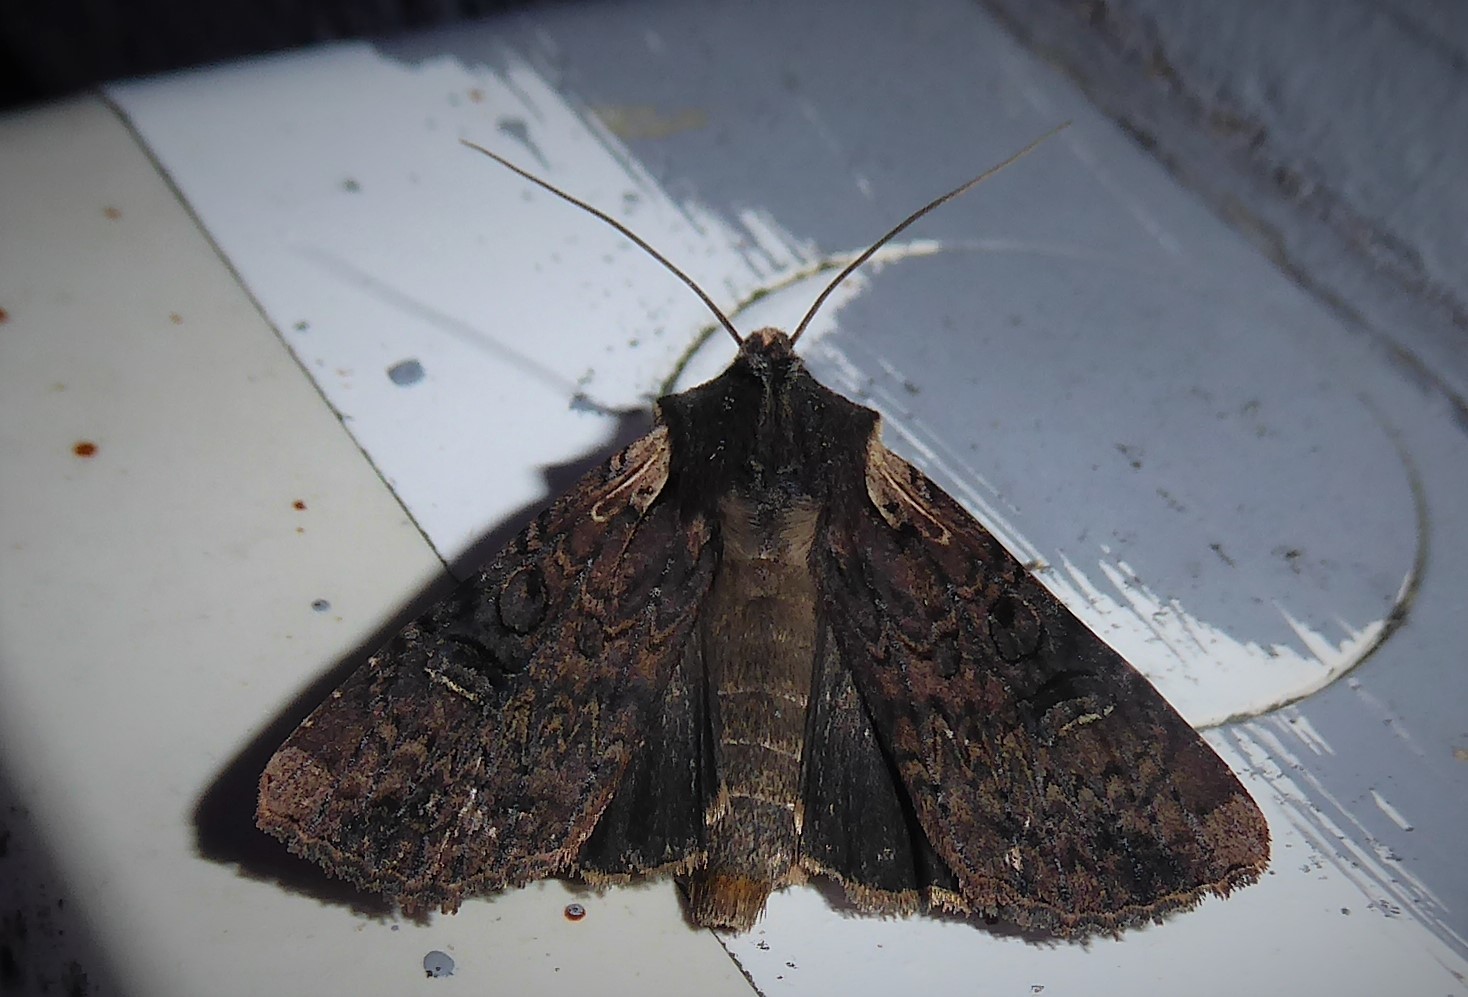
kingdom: Animalia
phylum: Arthropoda
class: Insecta
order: Lepidoptera
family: Noctuidae
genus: Ichneutica
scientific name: Ichneutica omoplaca
